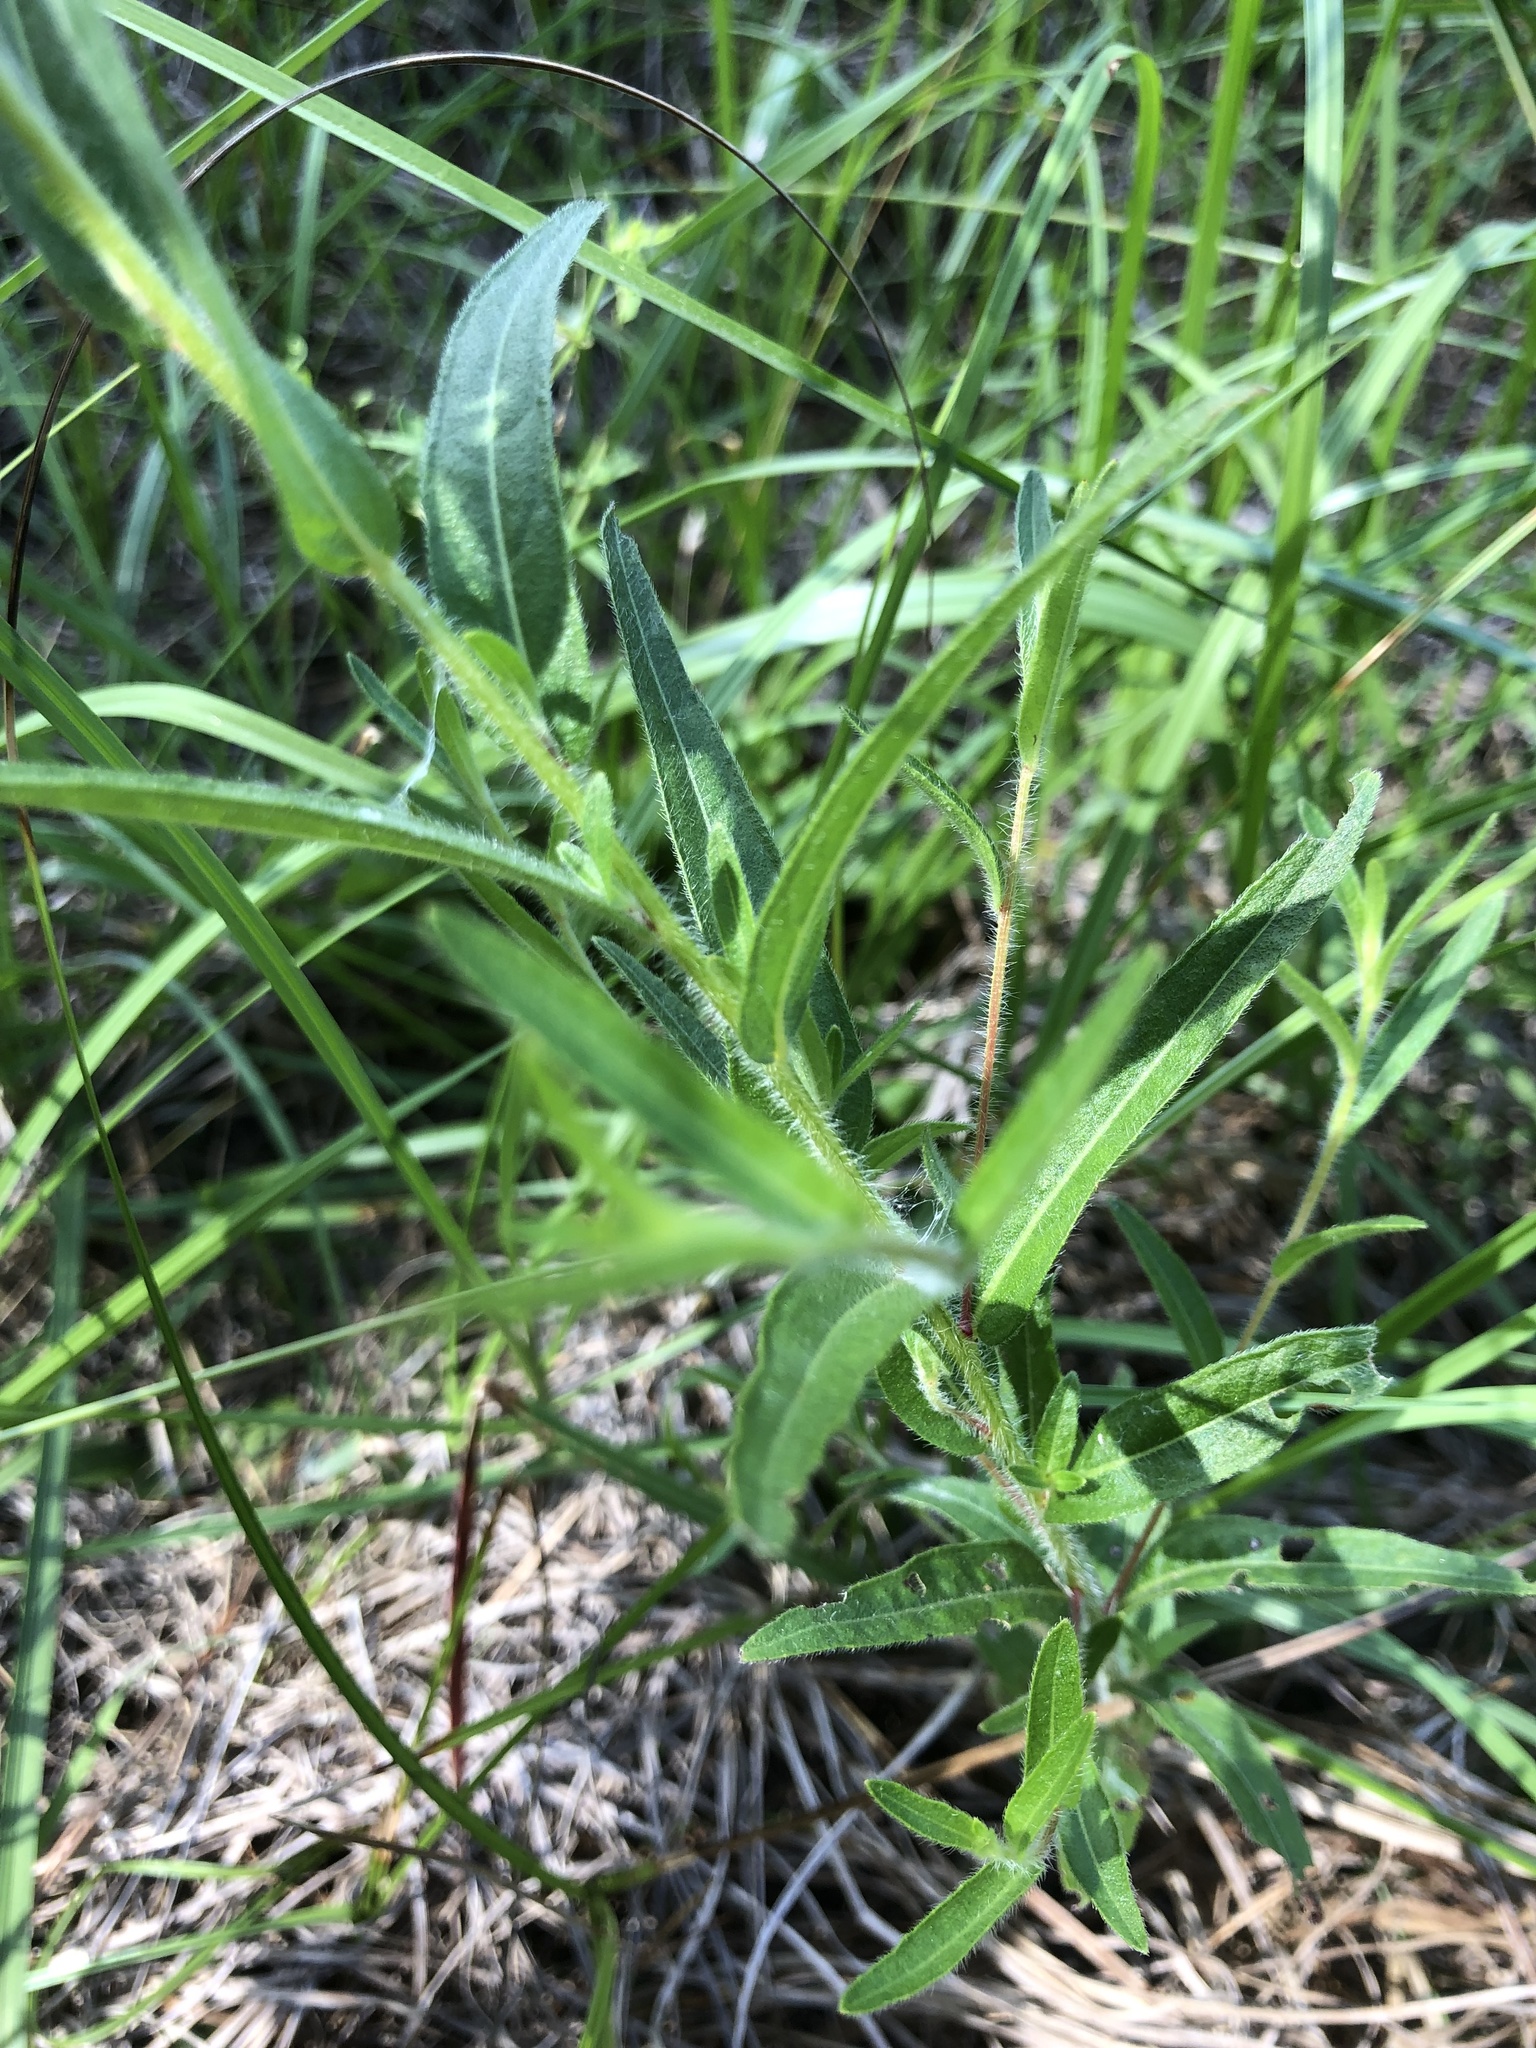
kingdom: Plantae
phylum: Tracheophyta
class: Magnoliopsida
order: Myrtales
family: Onagraceae
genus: Ludwigia
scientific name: Ludwigia hirtella
